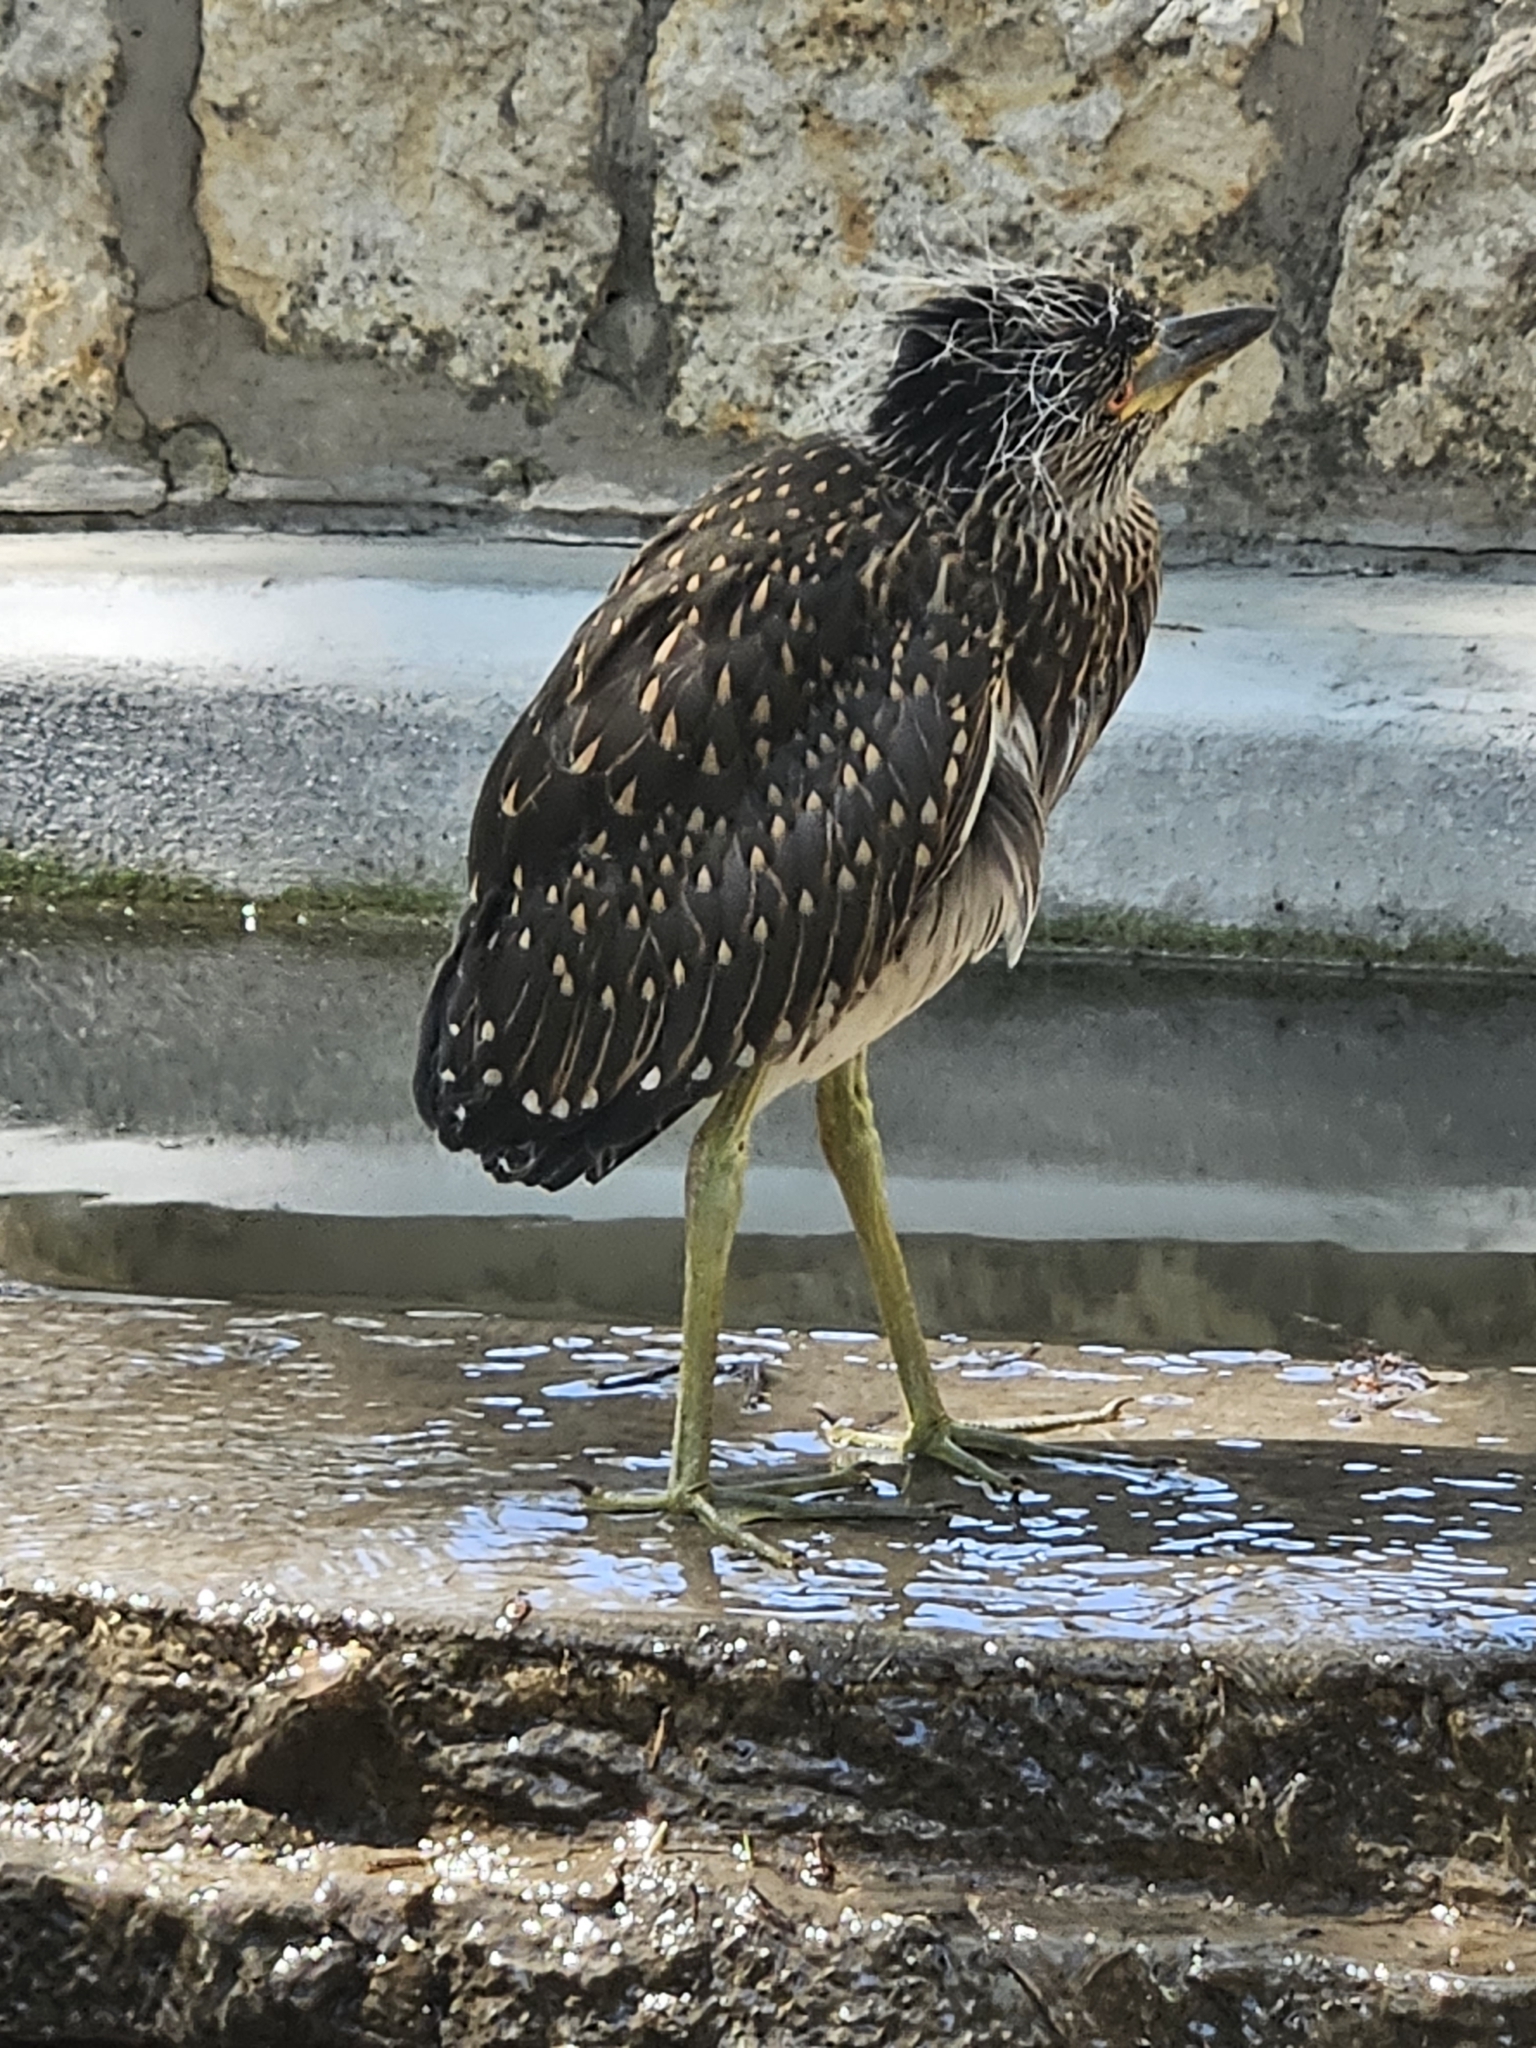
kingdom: Animalia
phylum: Chordata
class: Aves
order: Pelecaniformes
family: Ardeidae
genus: Nyctanassa
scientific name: Nyctanassa violacea
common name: Yellow-crowned night heron
